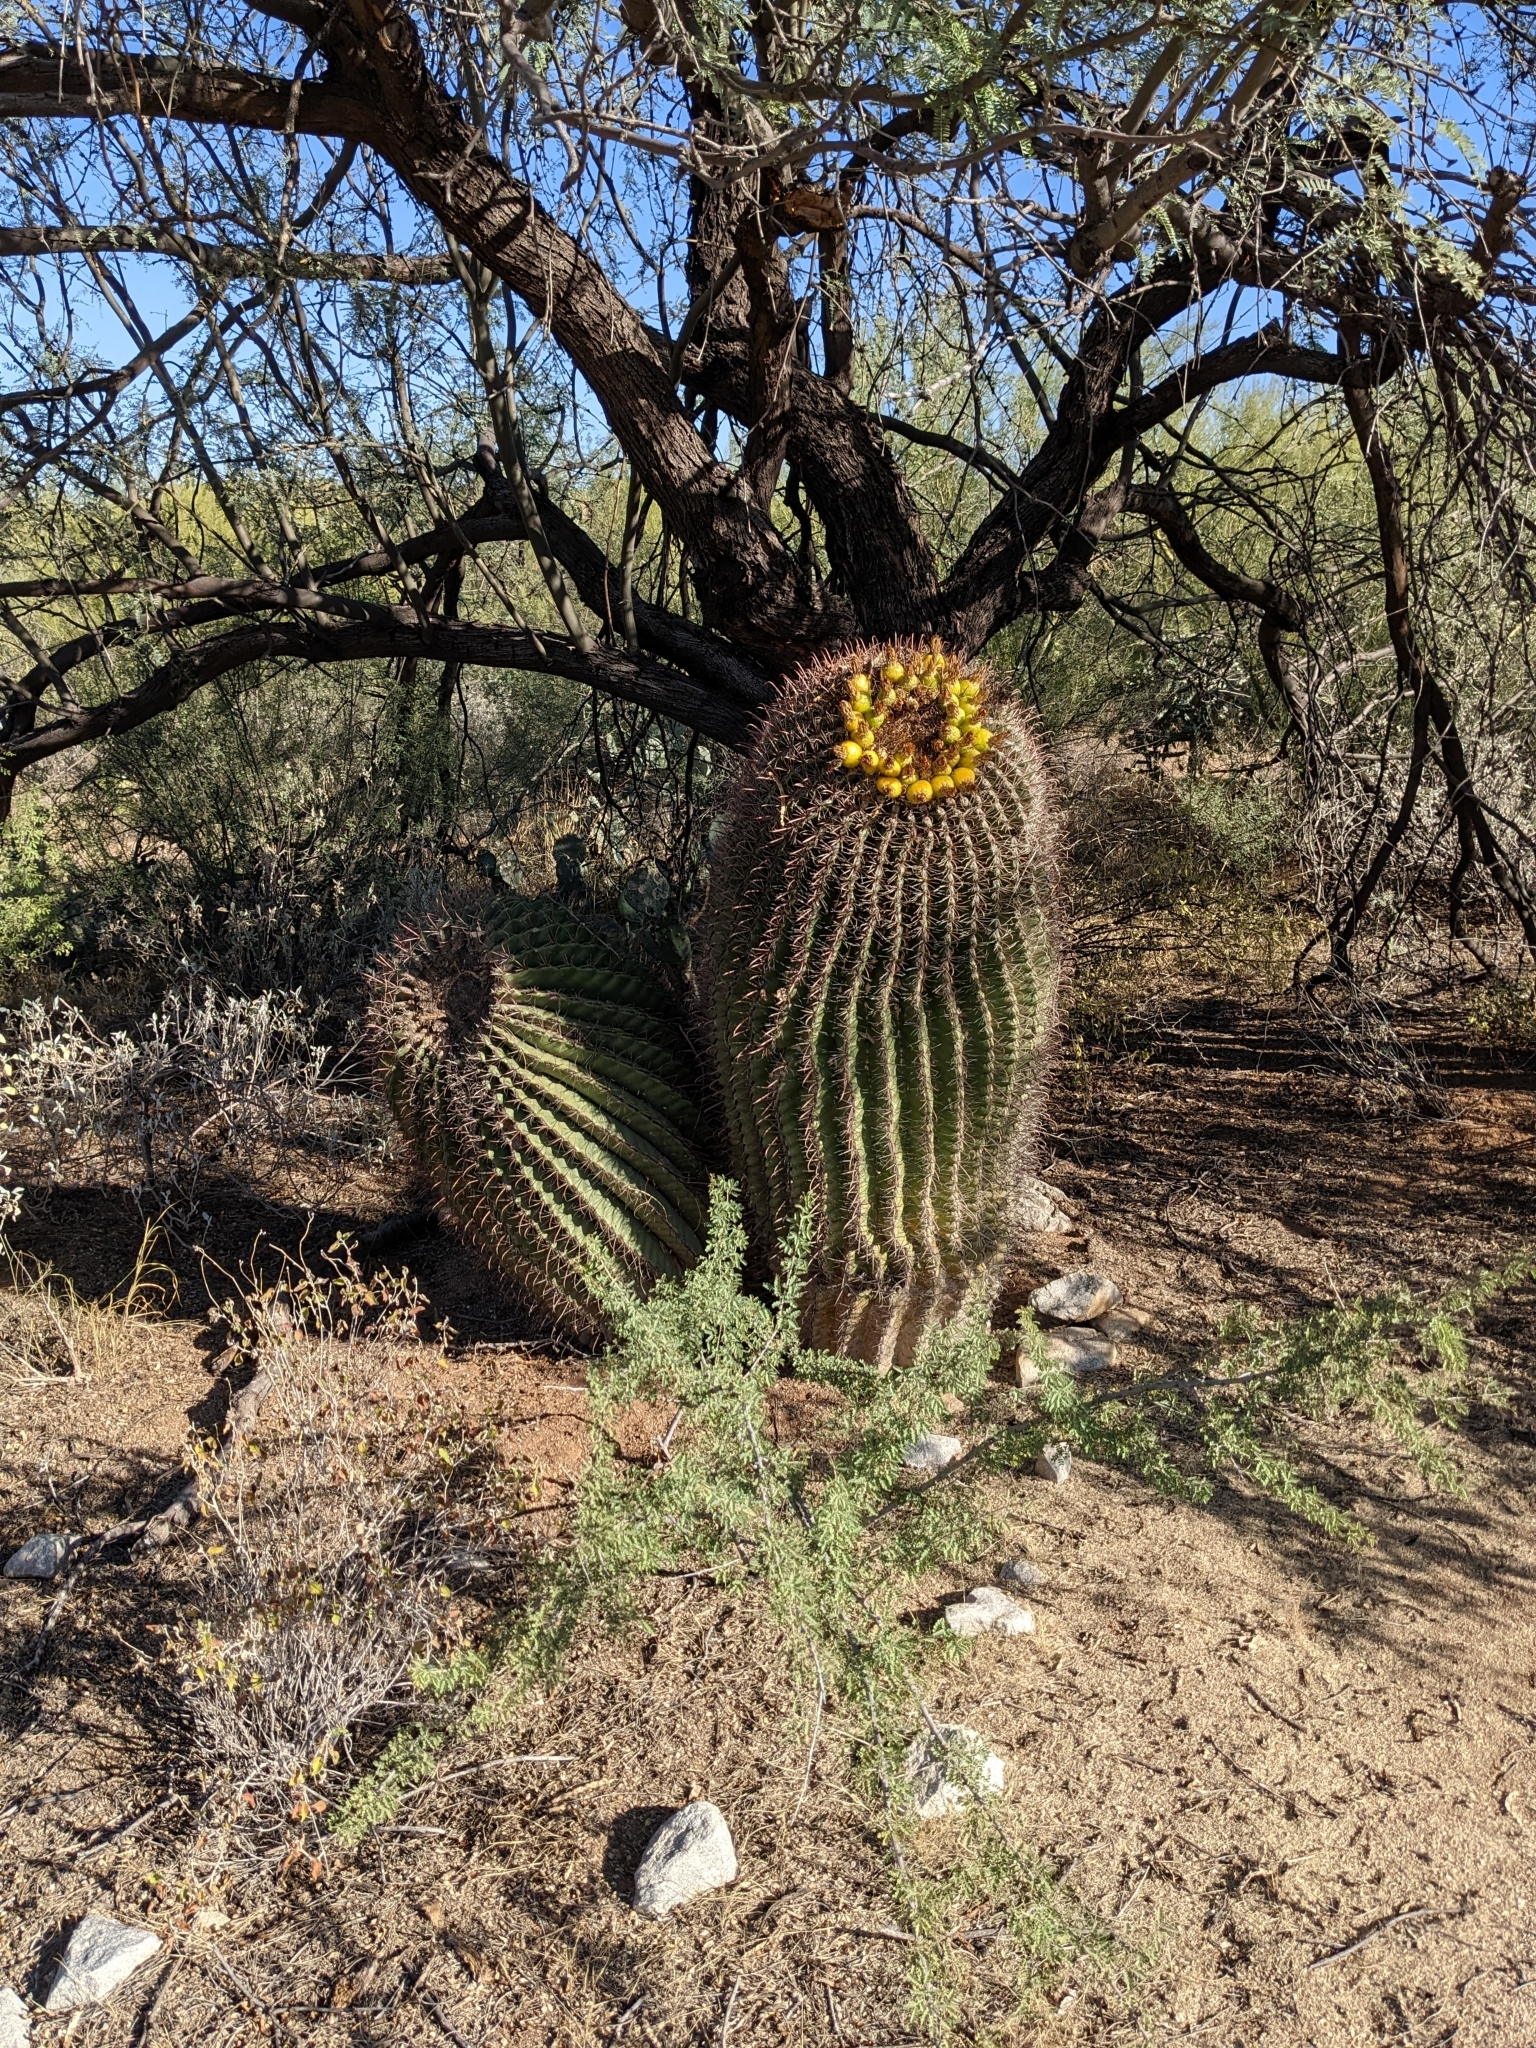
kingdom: Plantae
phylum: Tracheophyta
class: Magnoliopsida
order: Caryophyllales
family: Cactaceae
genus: Ferocactus
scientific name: Ferocactus wislizeni
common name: Candy barrel cactus
